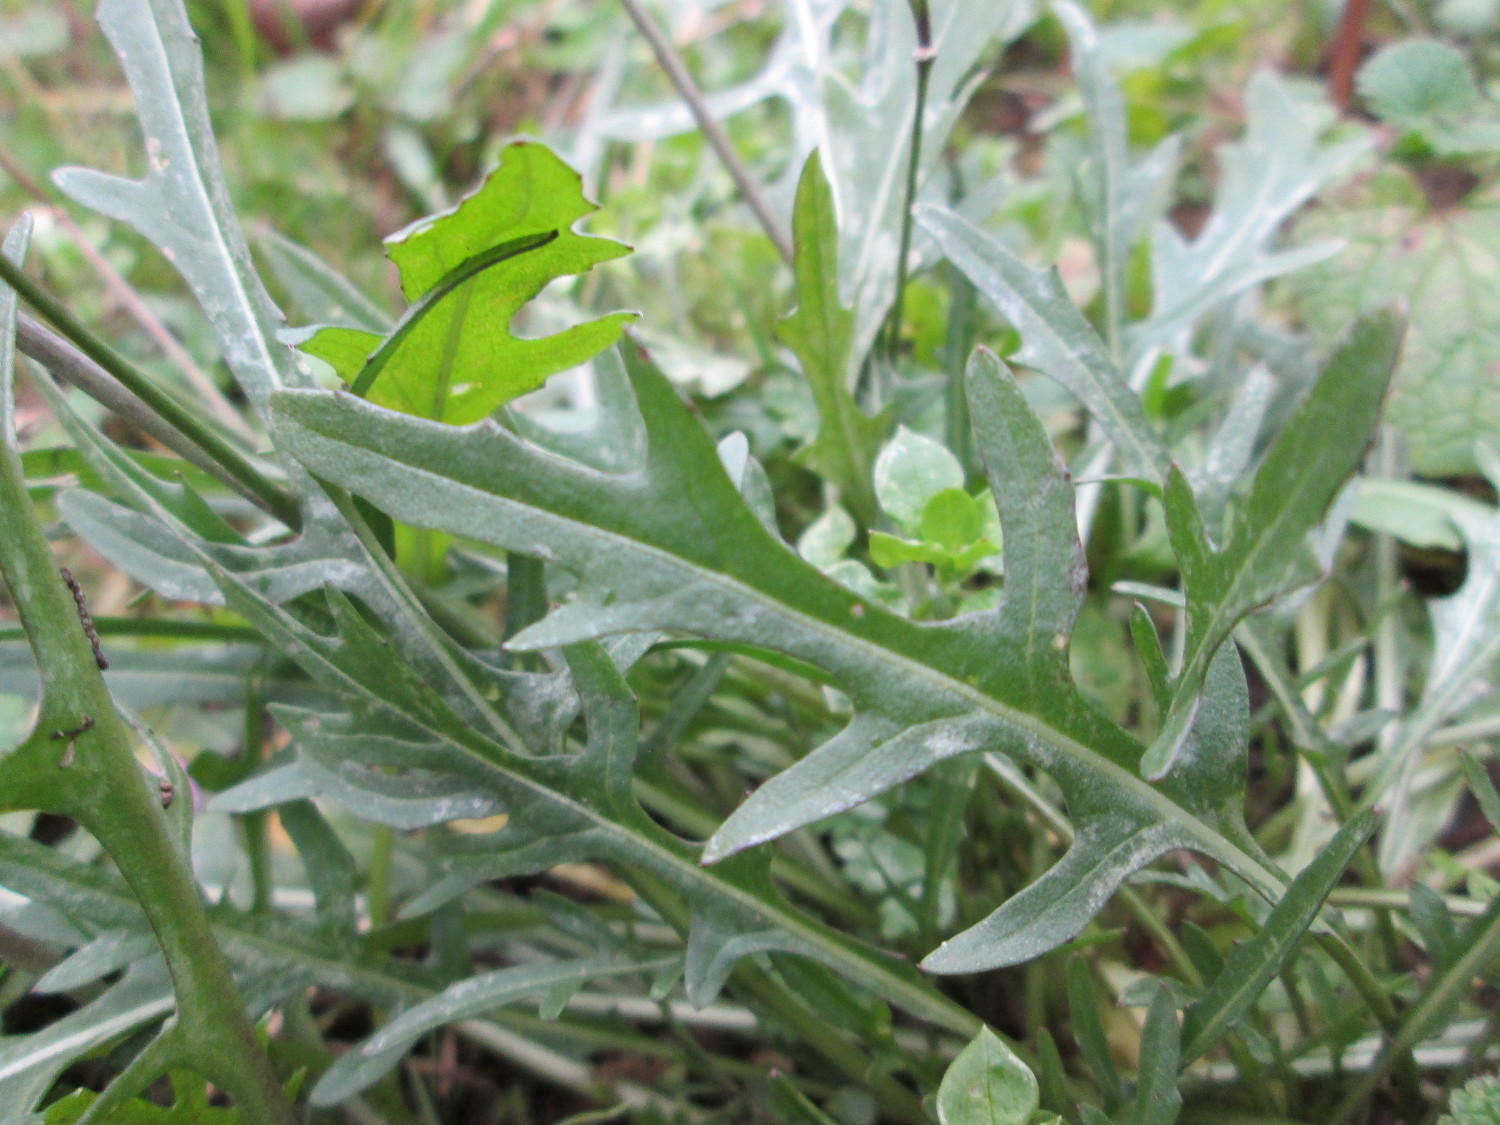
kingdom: Plantae
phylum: Tracheophyta
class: Magnoliopsida
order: Brassicales
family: Brassicaceae
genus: Diplotaxis
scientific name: Diplotaxis tenuifolia
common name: Perennial wall-rocket
